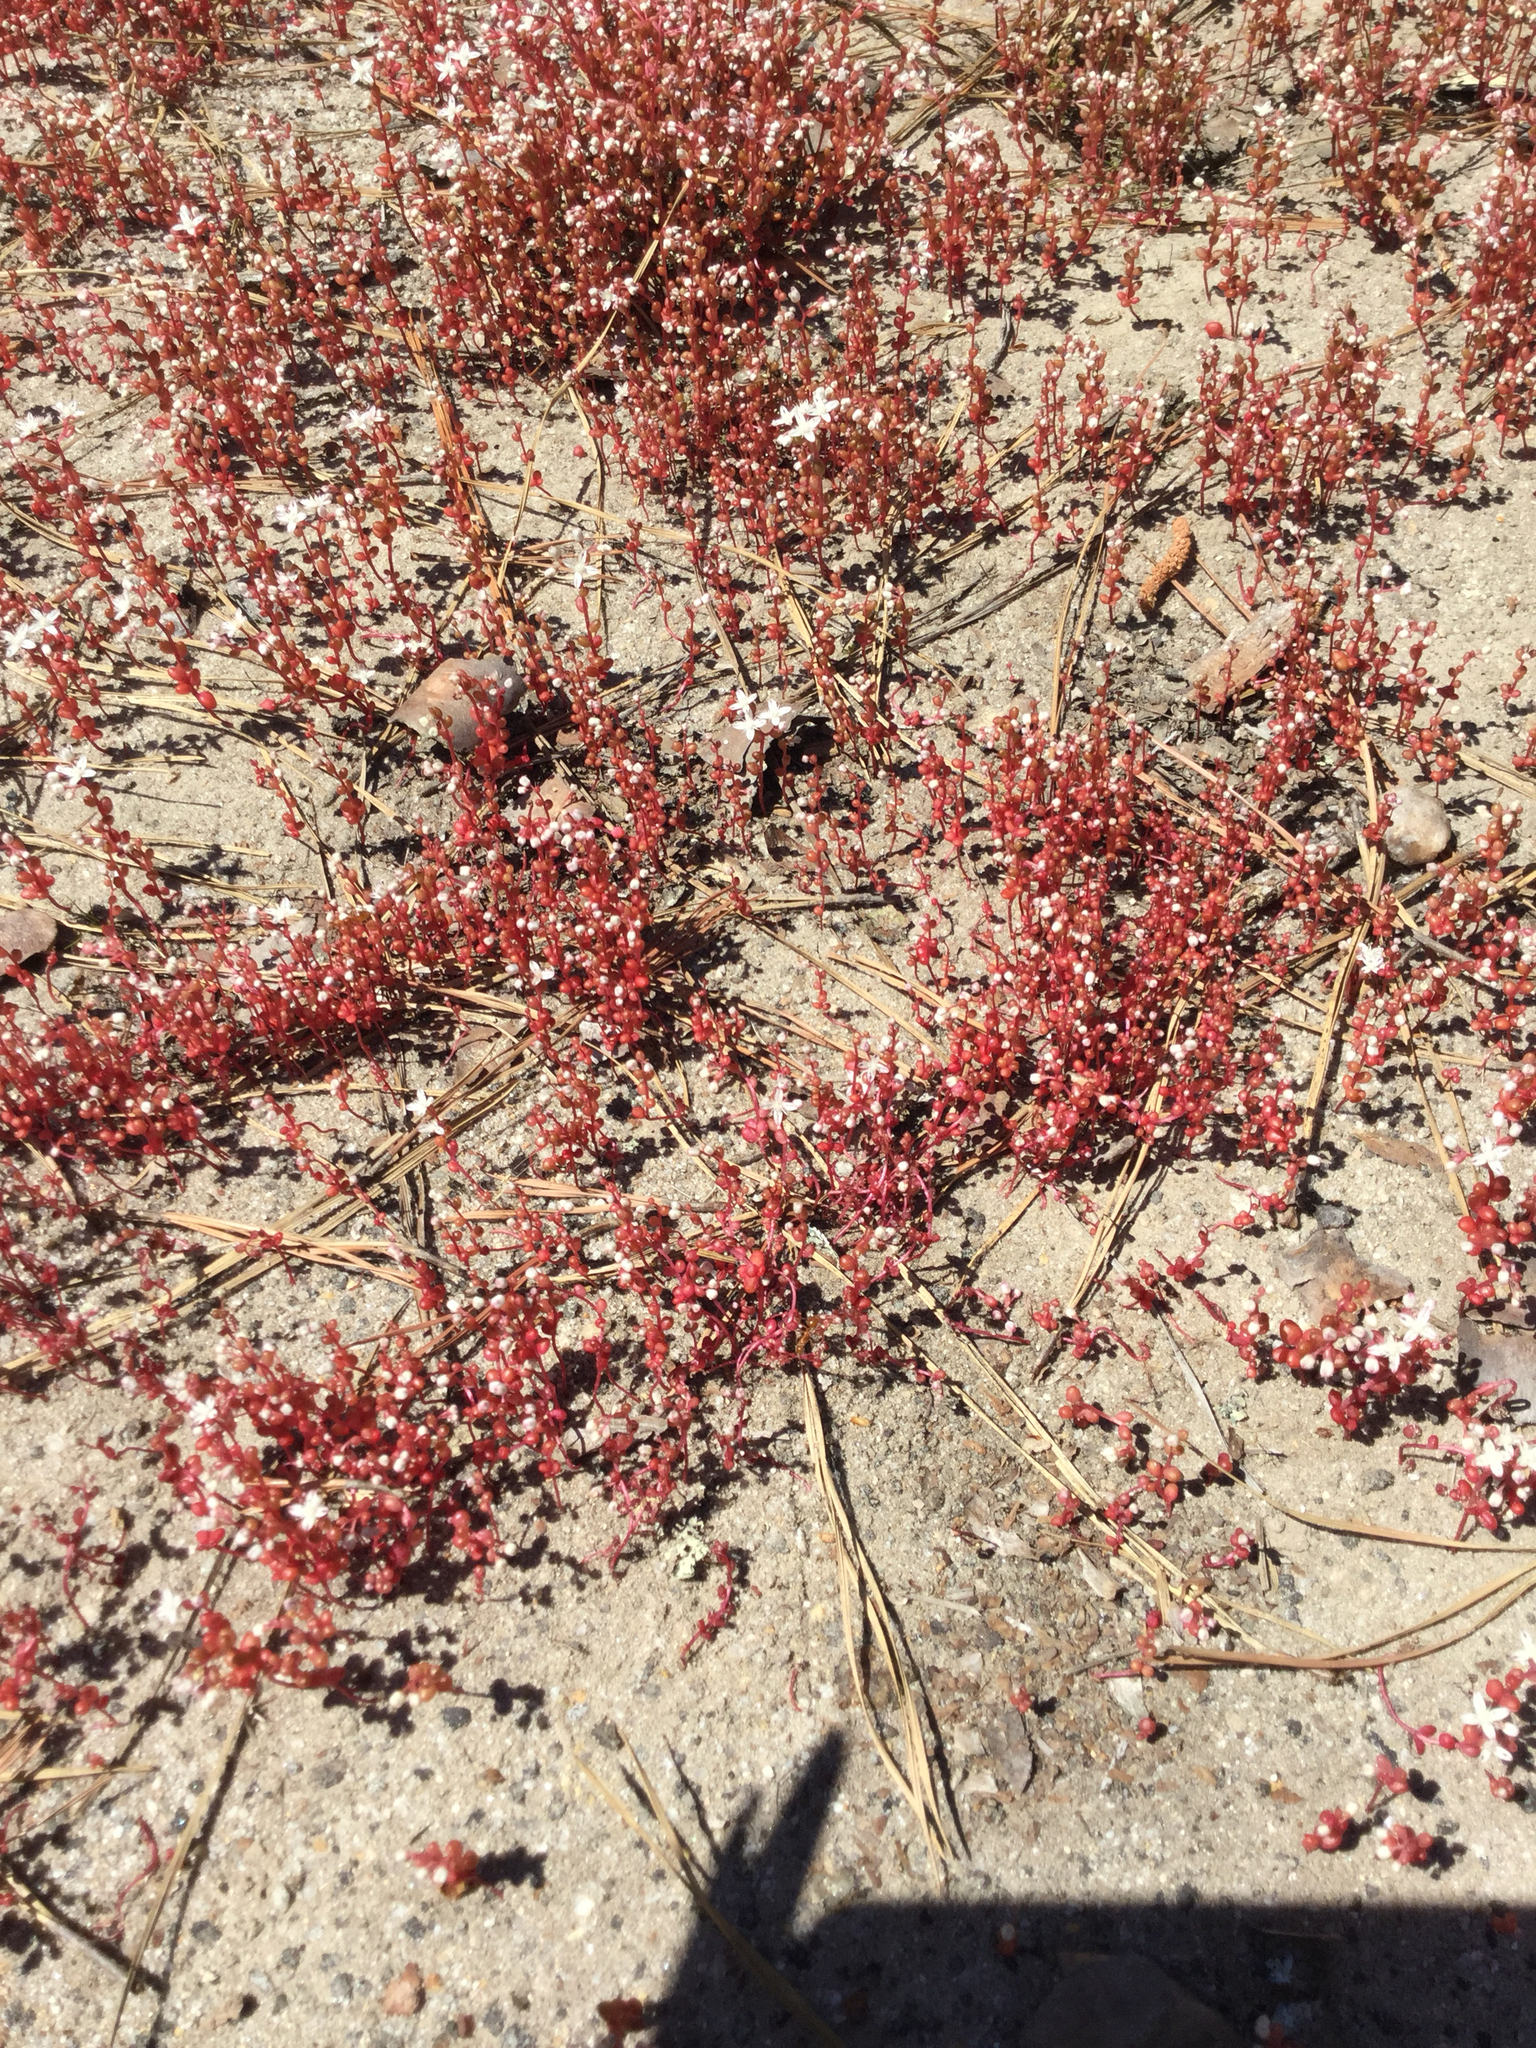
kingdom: Plantae
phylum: Tracheophyta
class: Magnoliopsida
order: Saxifragales
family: Crassulaceae
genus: Sedum
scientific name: Sedum smallii
